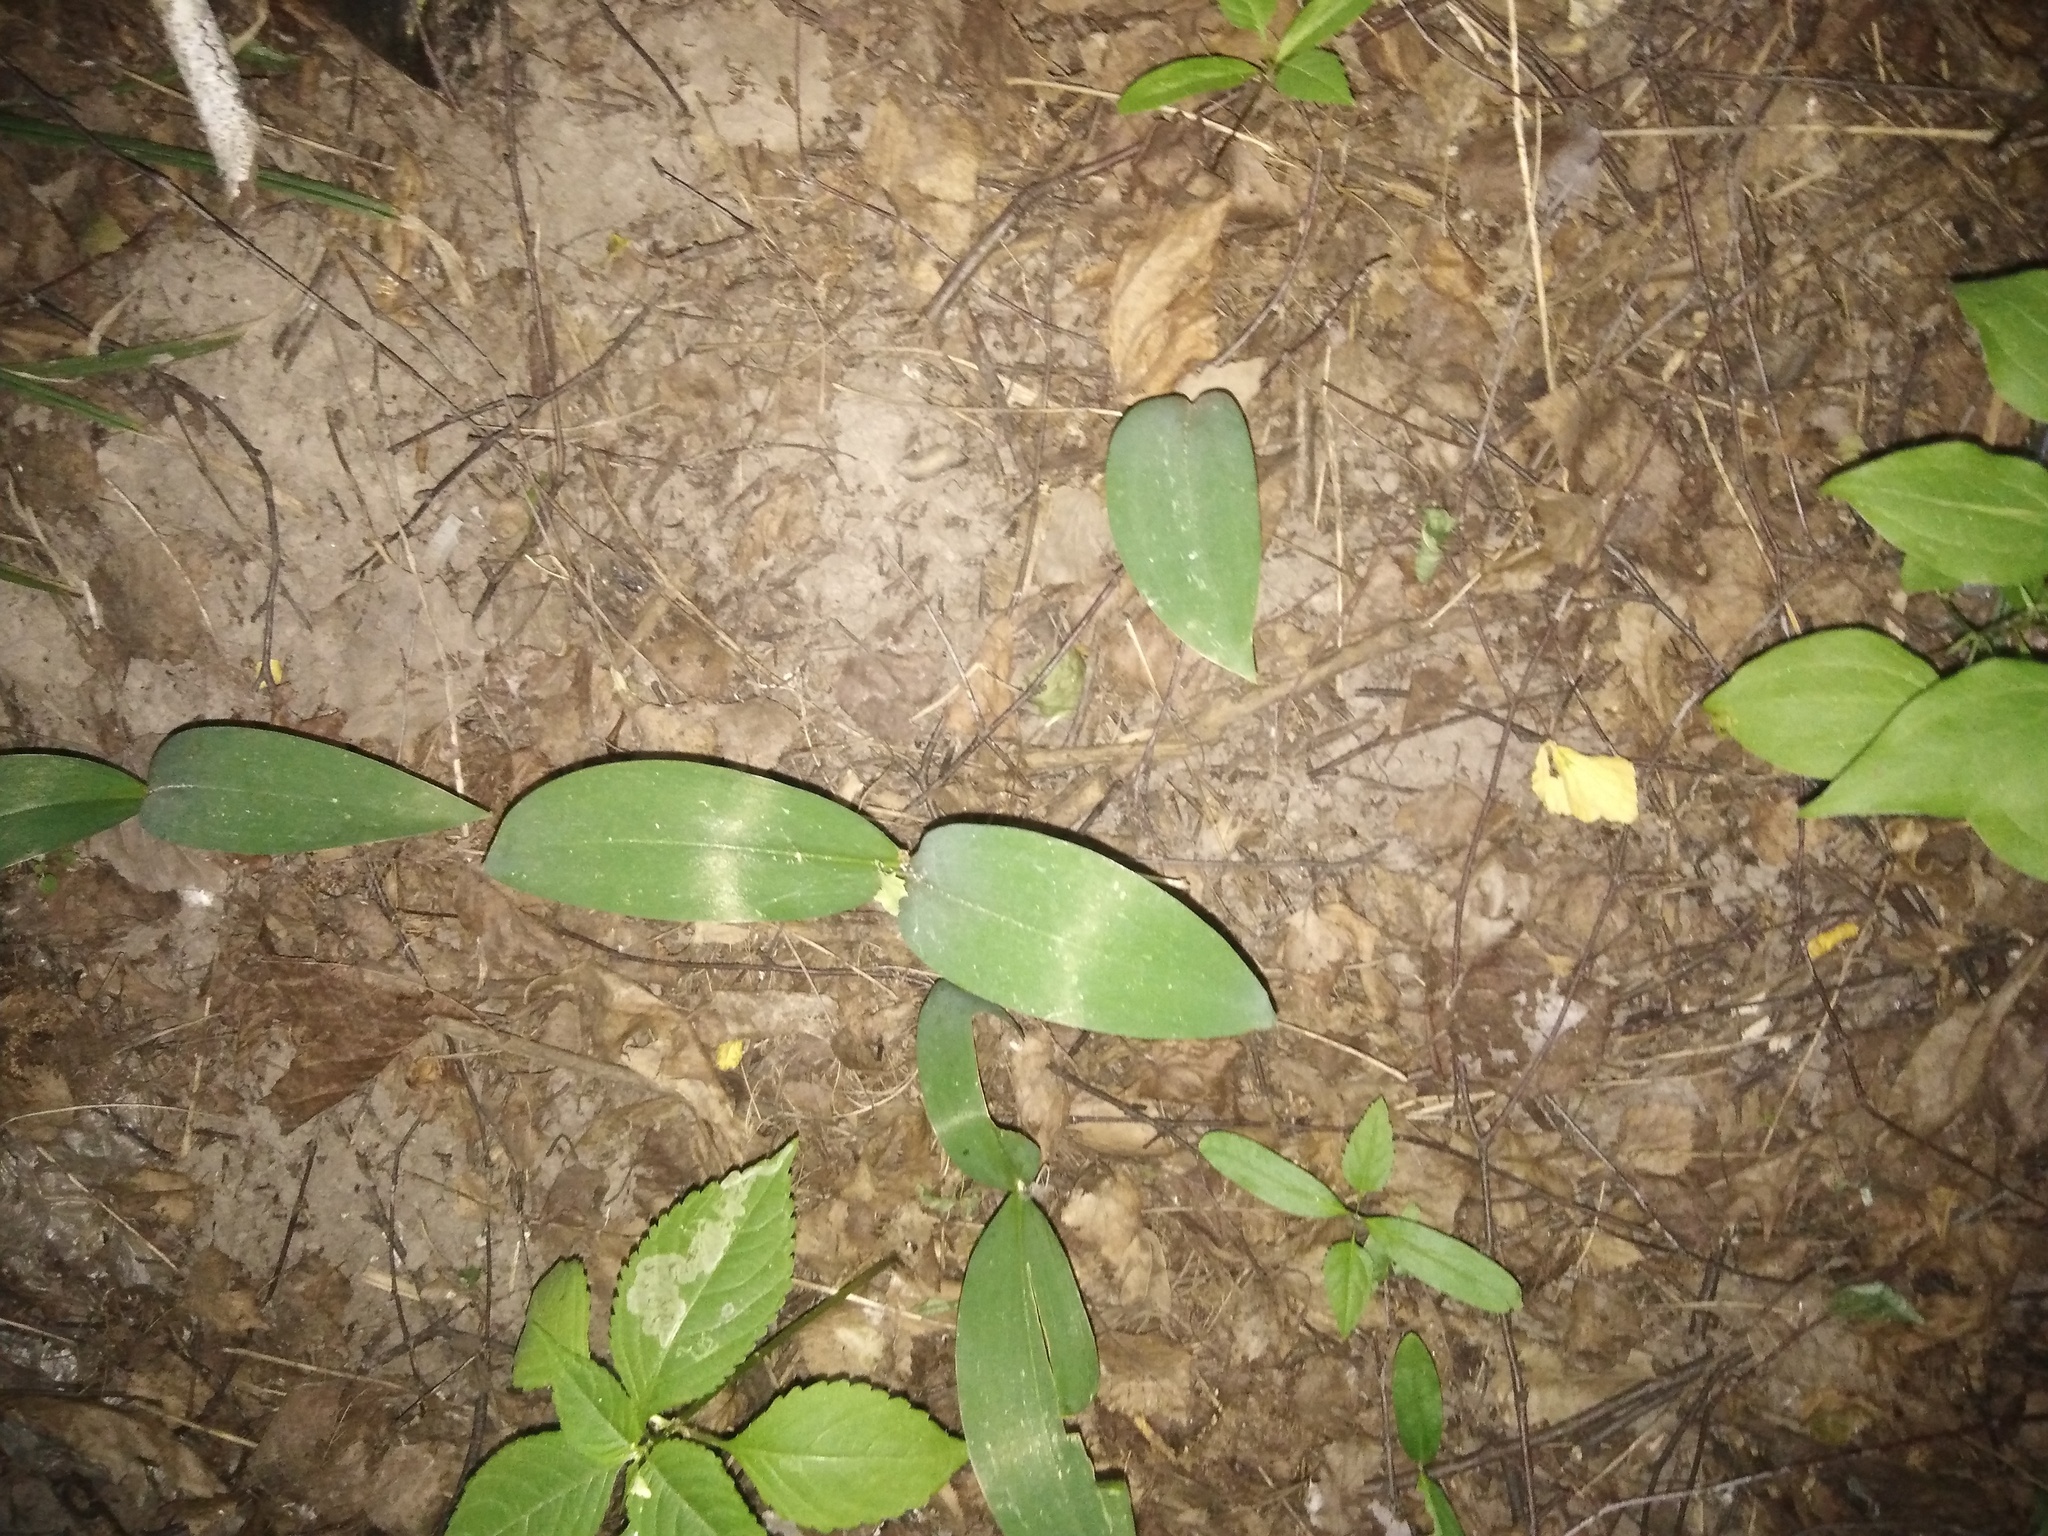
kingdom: Plantae
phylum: Tracheophyta
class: Liliopsida
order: Asparagales
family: Asparagaceae
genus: Convallaria
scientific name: Convallaria majalis
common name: Lily-of-the-valley
